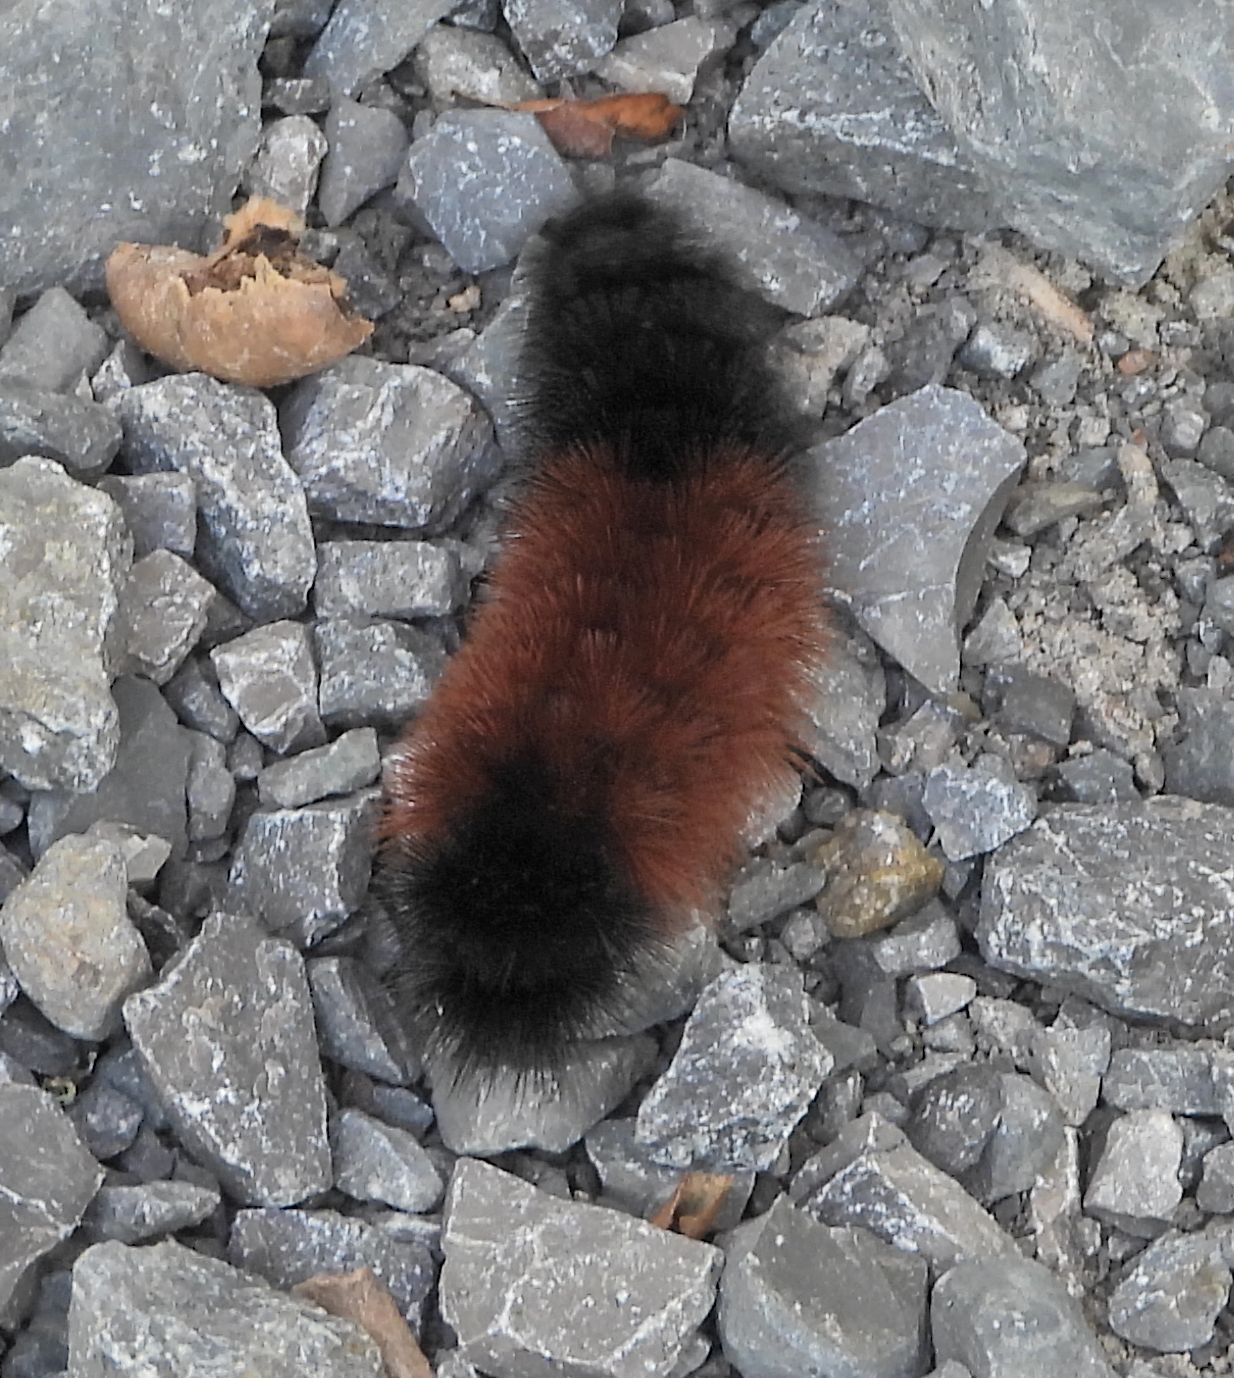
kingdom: Animalia
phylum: Arthropoda
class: Insecta
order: Lepidoptera
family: Erebidae
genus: Pyrrharctia
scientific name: Pyrrharctia isabella
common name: Isabella tiger moth
